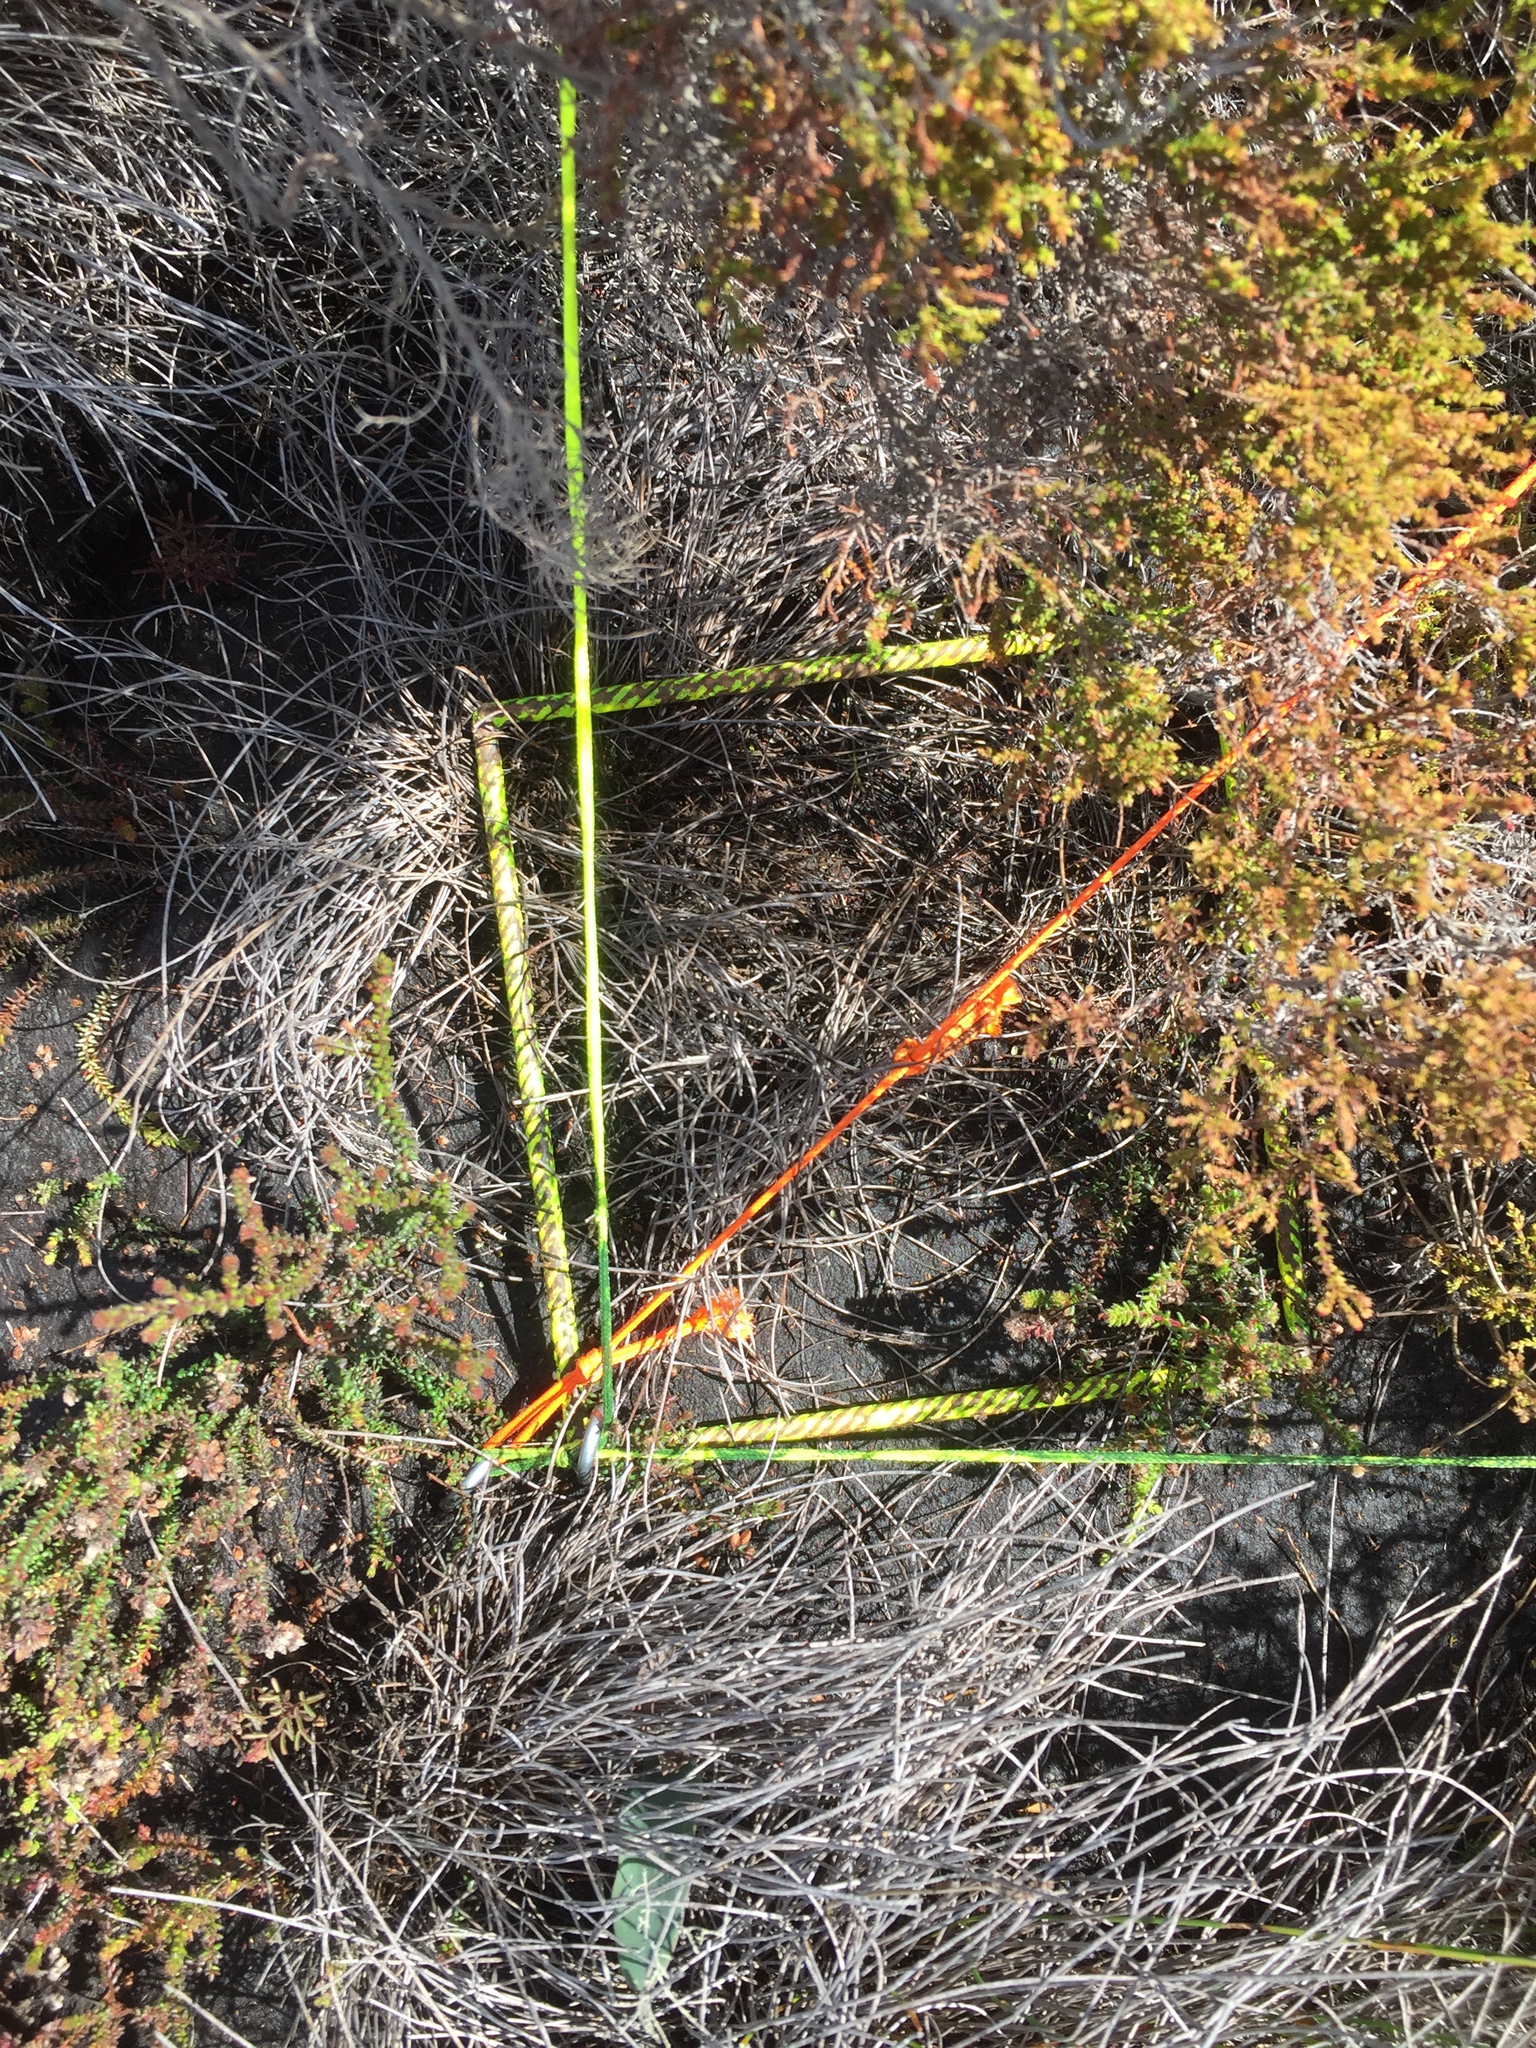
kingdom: Plantae
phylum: Tracheophyta
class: Magnoliopsida
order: Ericales
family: Ericaceae
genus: Erica
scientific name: Erica clavisepala
